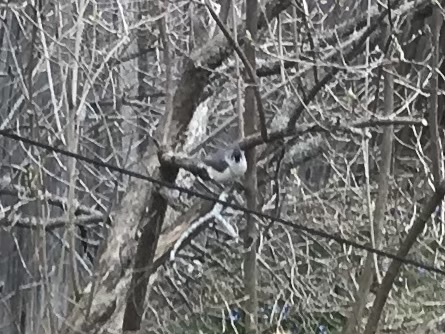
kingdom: Animalia
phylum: Chordata
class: Aves
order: Passeriformes
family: Paridae
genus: Baeolophus
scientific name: Baeolophus bicolor
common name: Tufted titmouse
